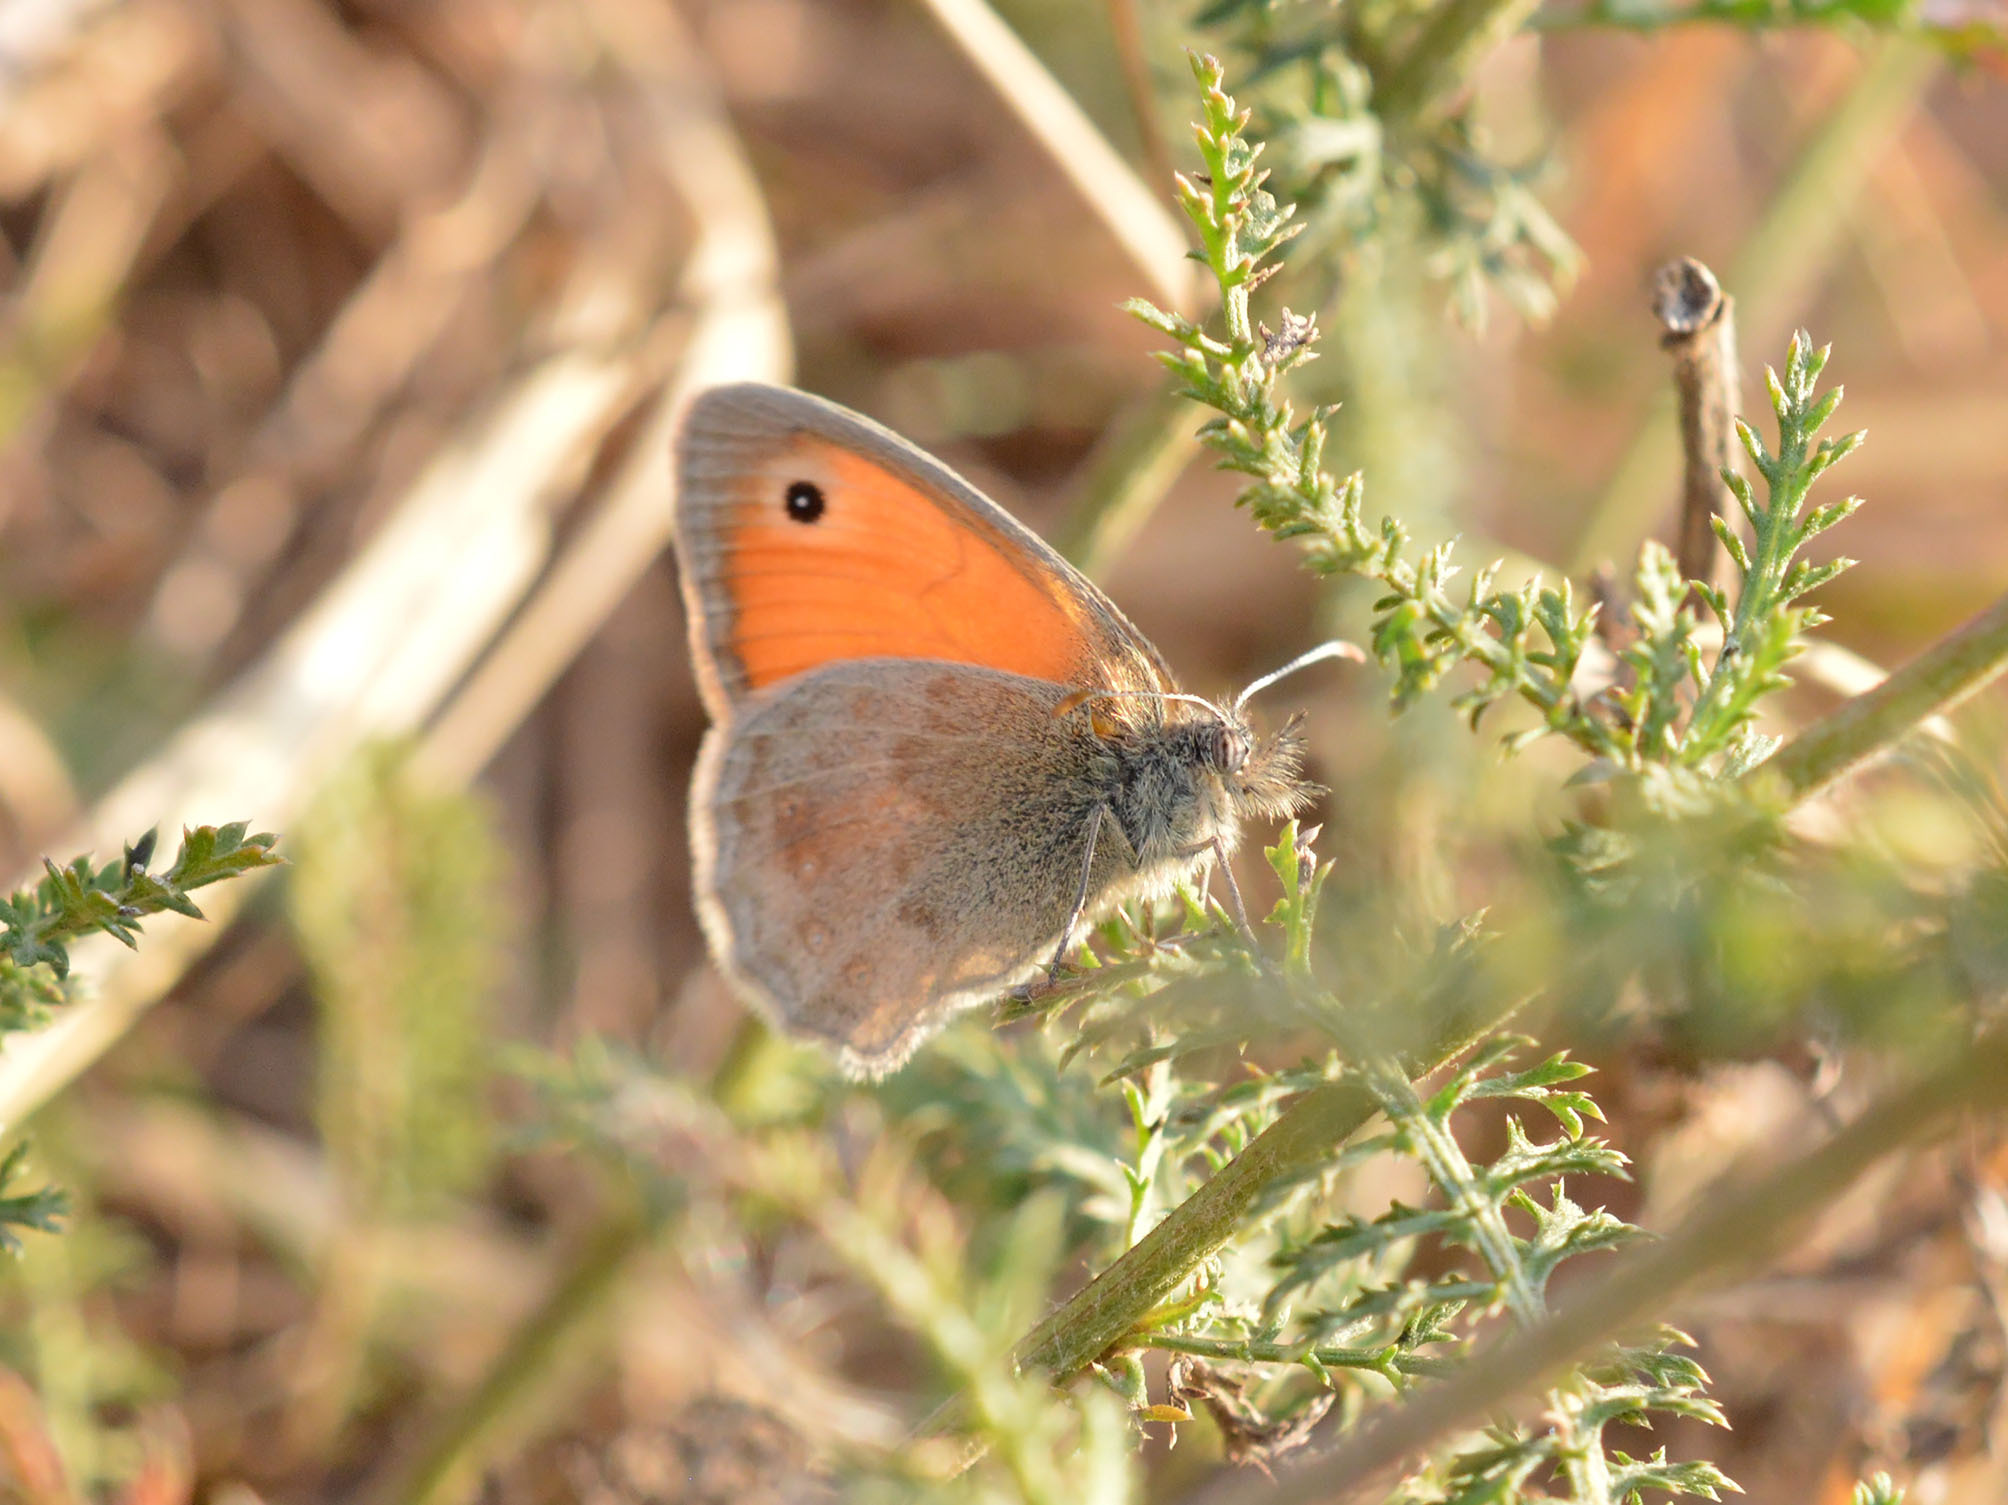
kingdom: Animalia
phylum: Arthropoda
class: Insecta
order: Lepidoptera
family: Nymphalidae
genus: Coenonympha
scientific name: Coenonympha pamphilus
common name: Small heath
